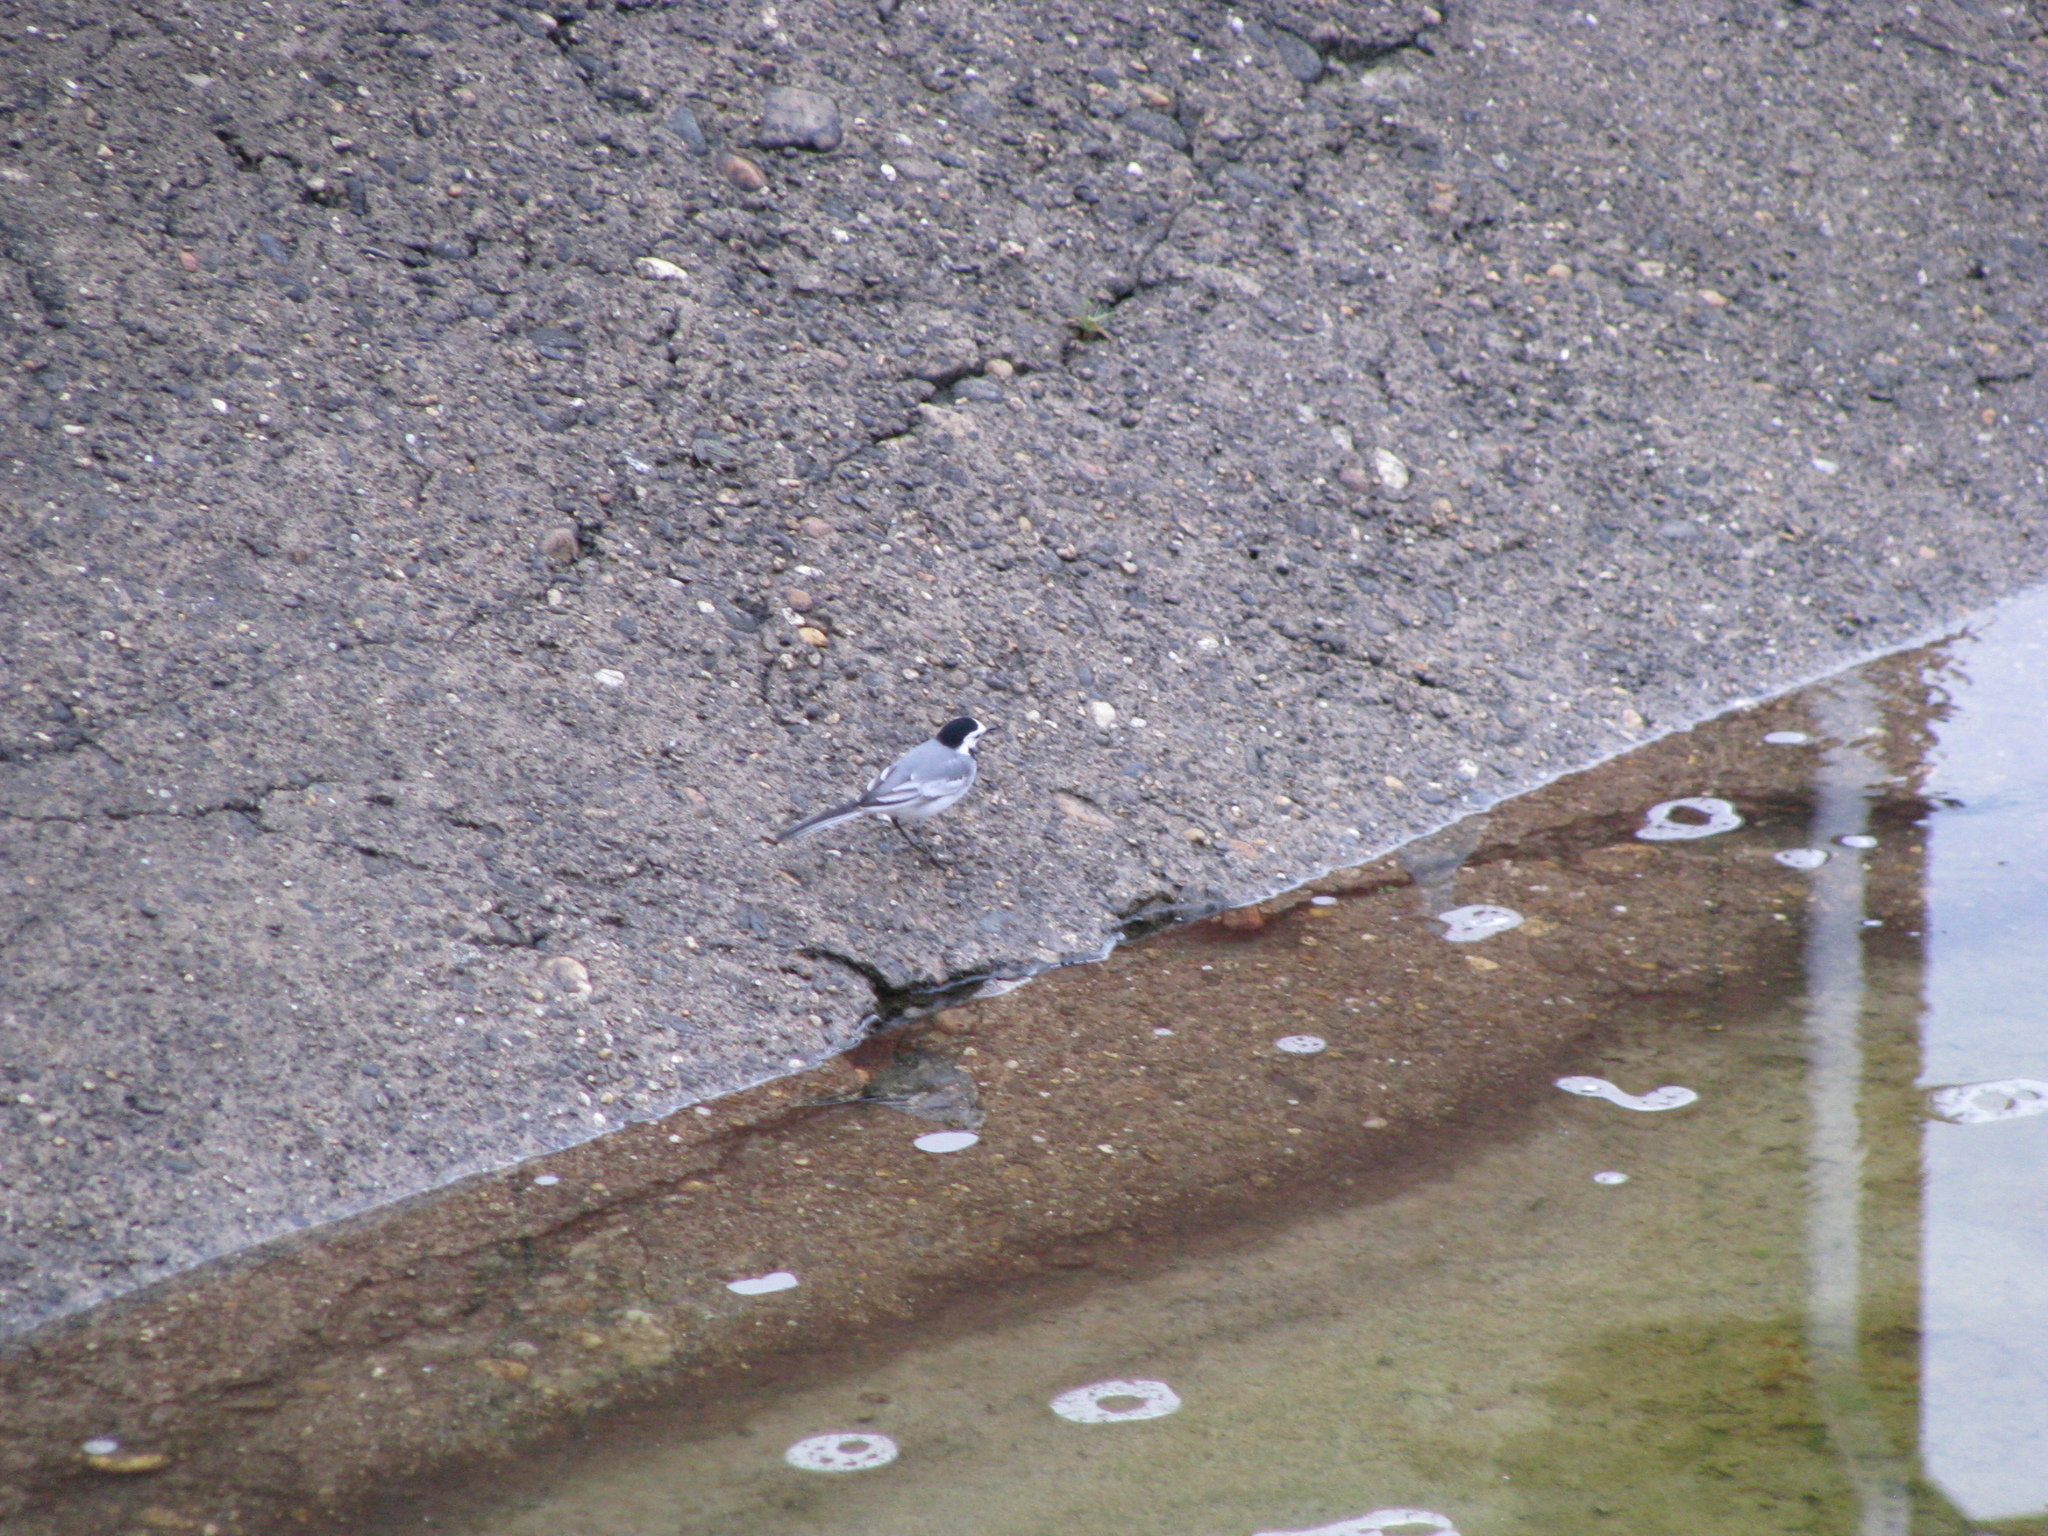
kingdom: Animalia
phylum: Chordata
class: Aves
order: Passeriformes
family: Motacillidae
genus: Motacilla
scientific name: Motacilla alba
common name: White wagtail
